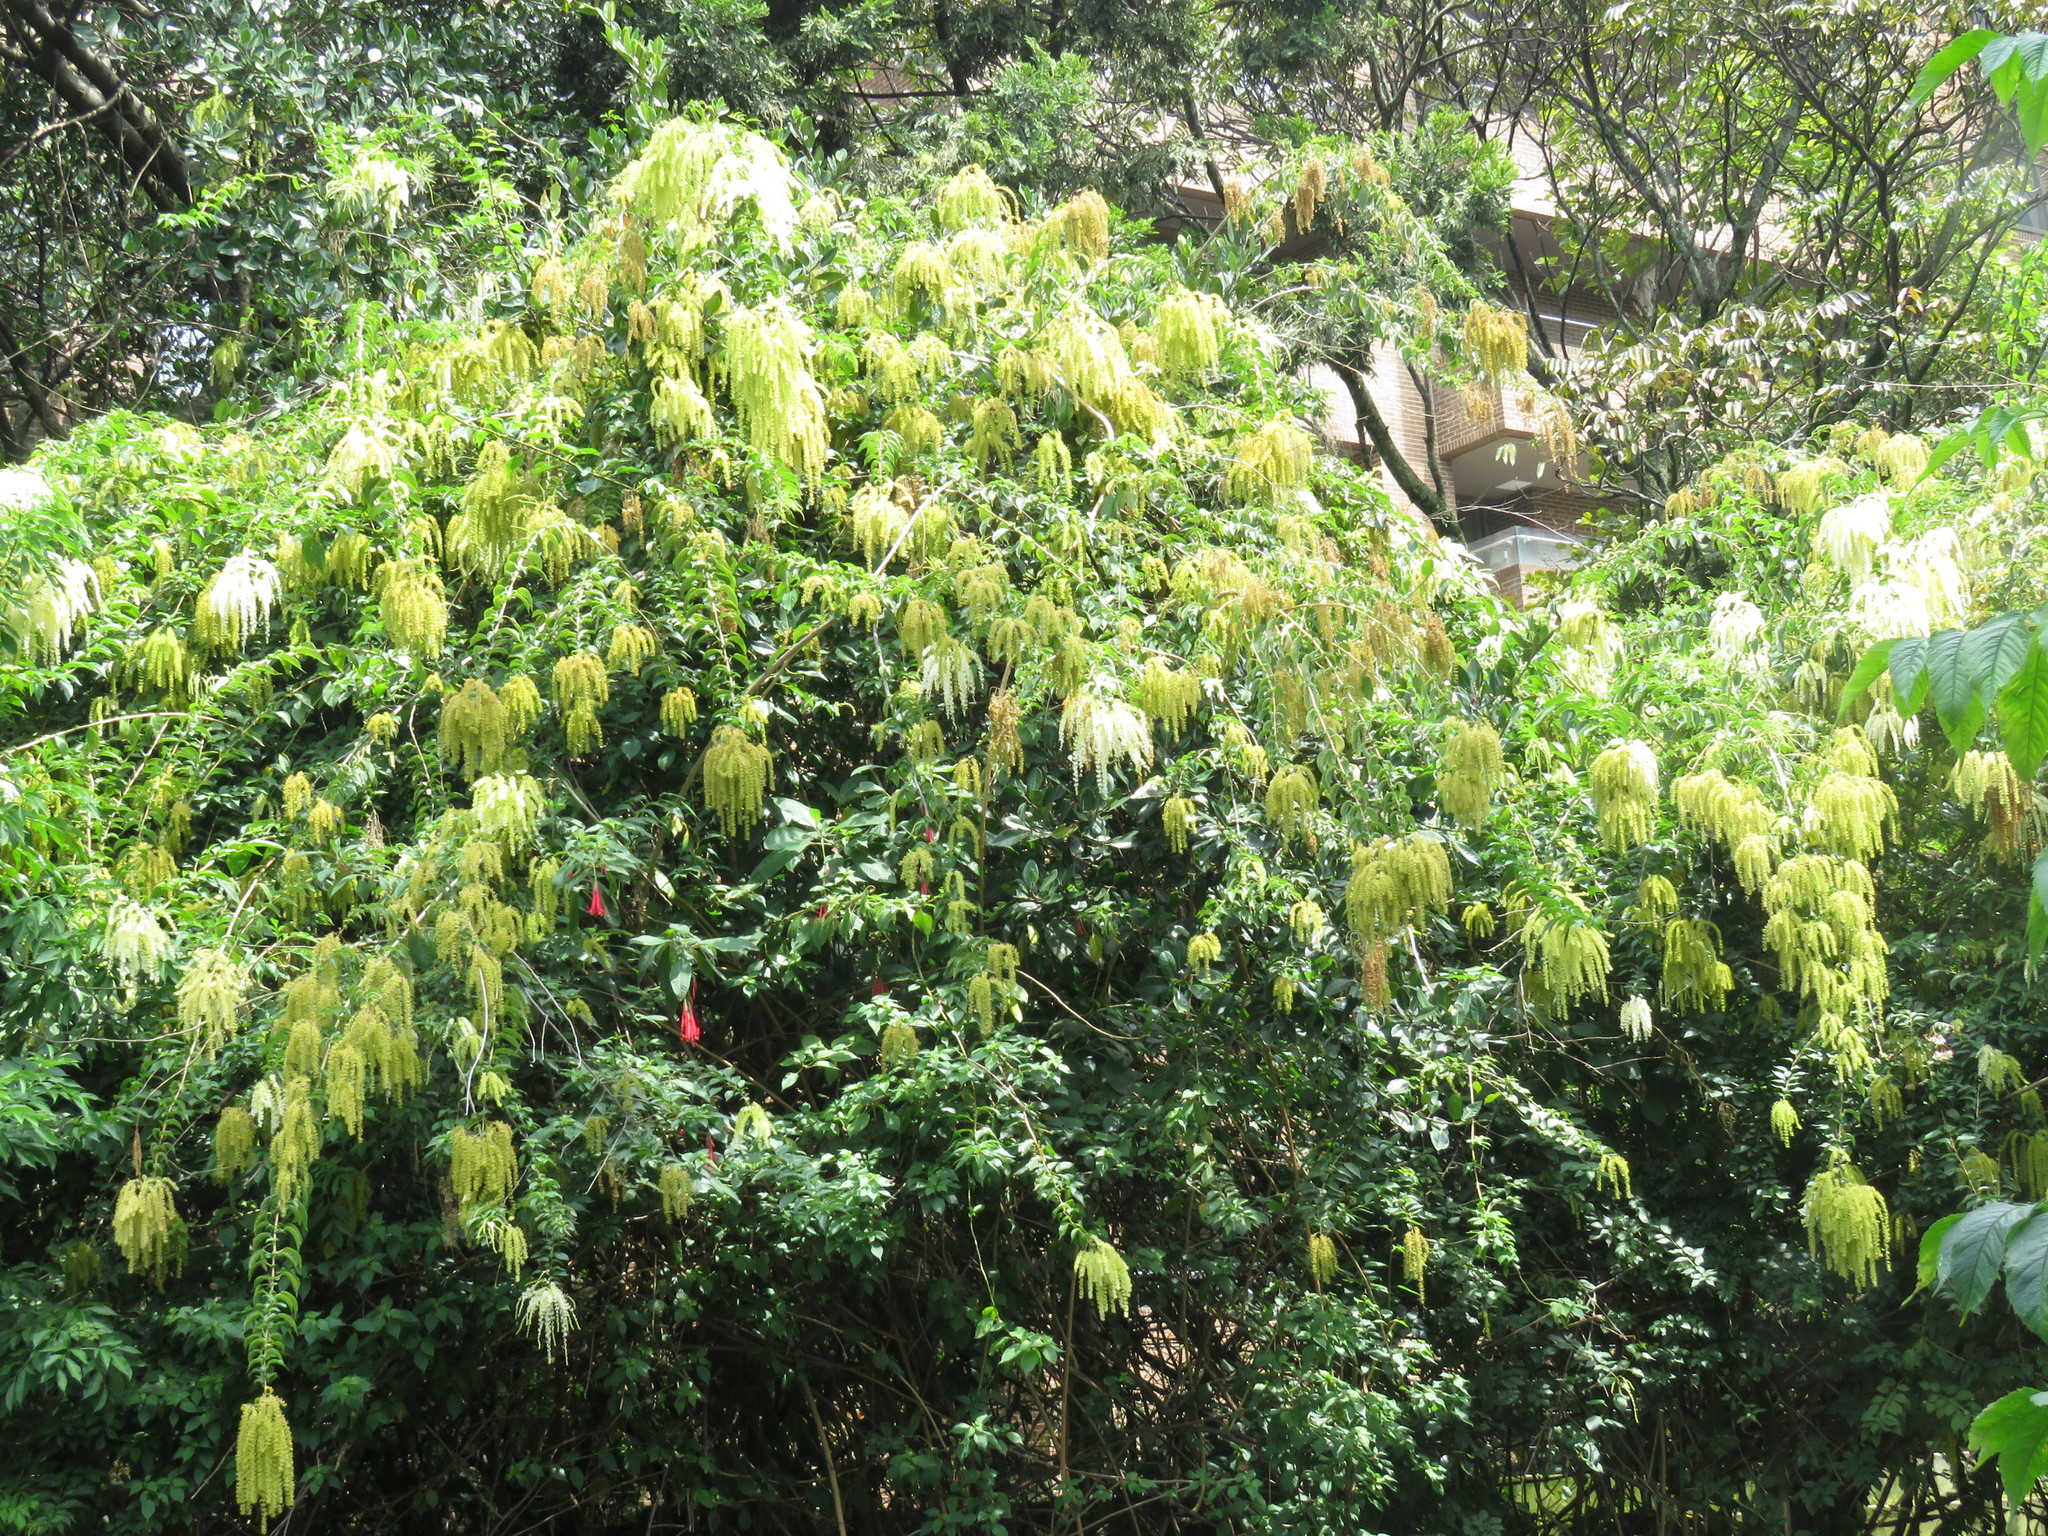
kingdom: Plantae
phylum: Tracheophyta
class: Magnoliopsida
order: Caryophyllales
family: Phytolaccaceae
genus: Ledenbergia
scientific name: Ledenbergia peruviana
